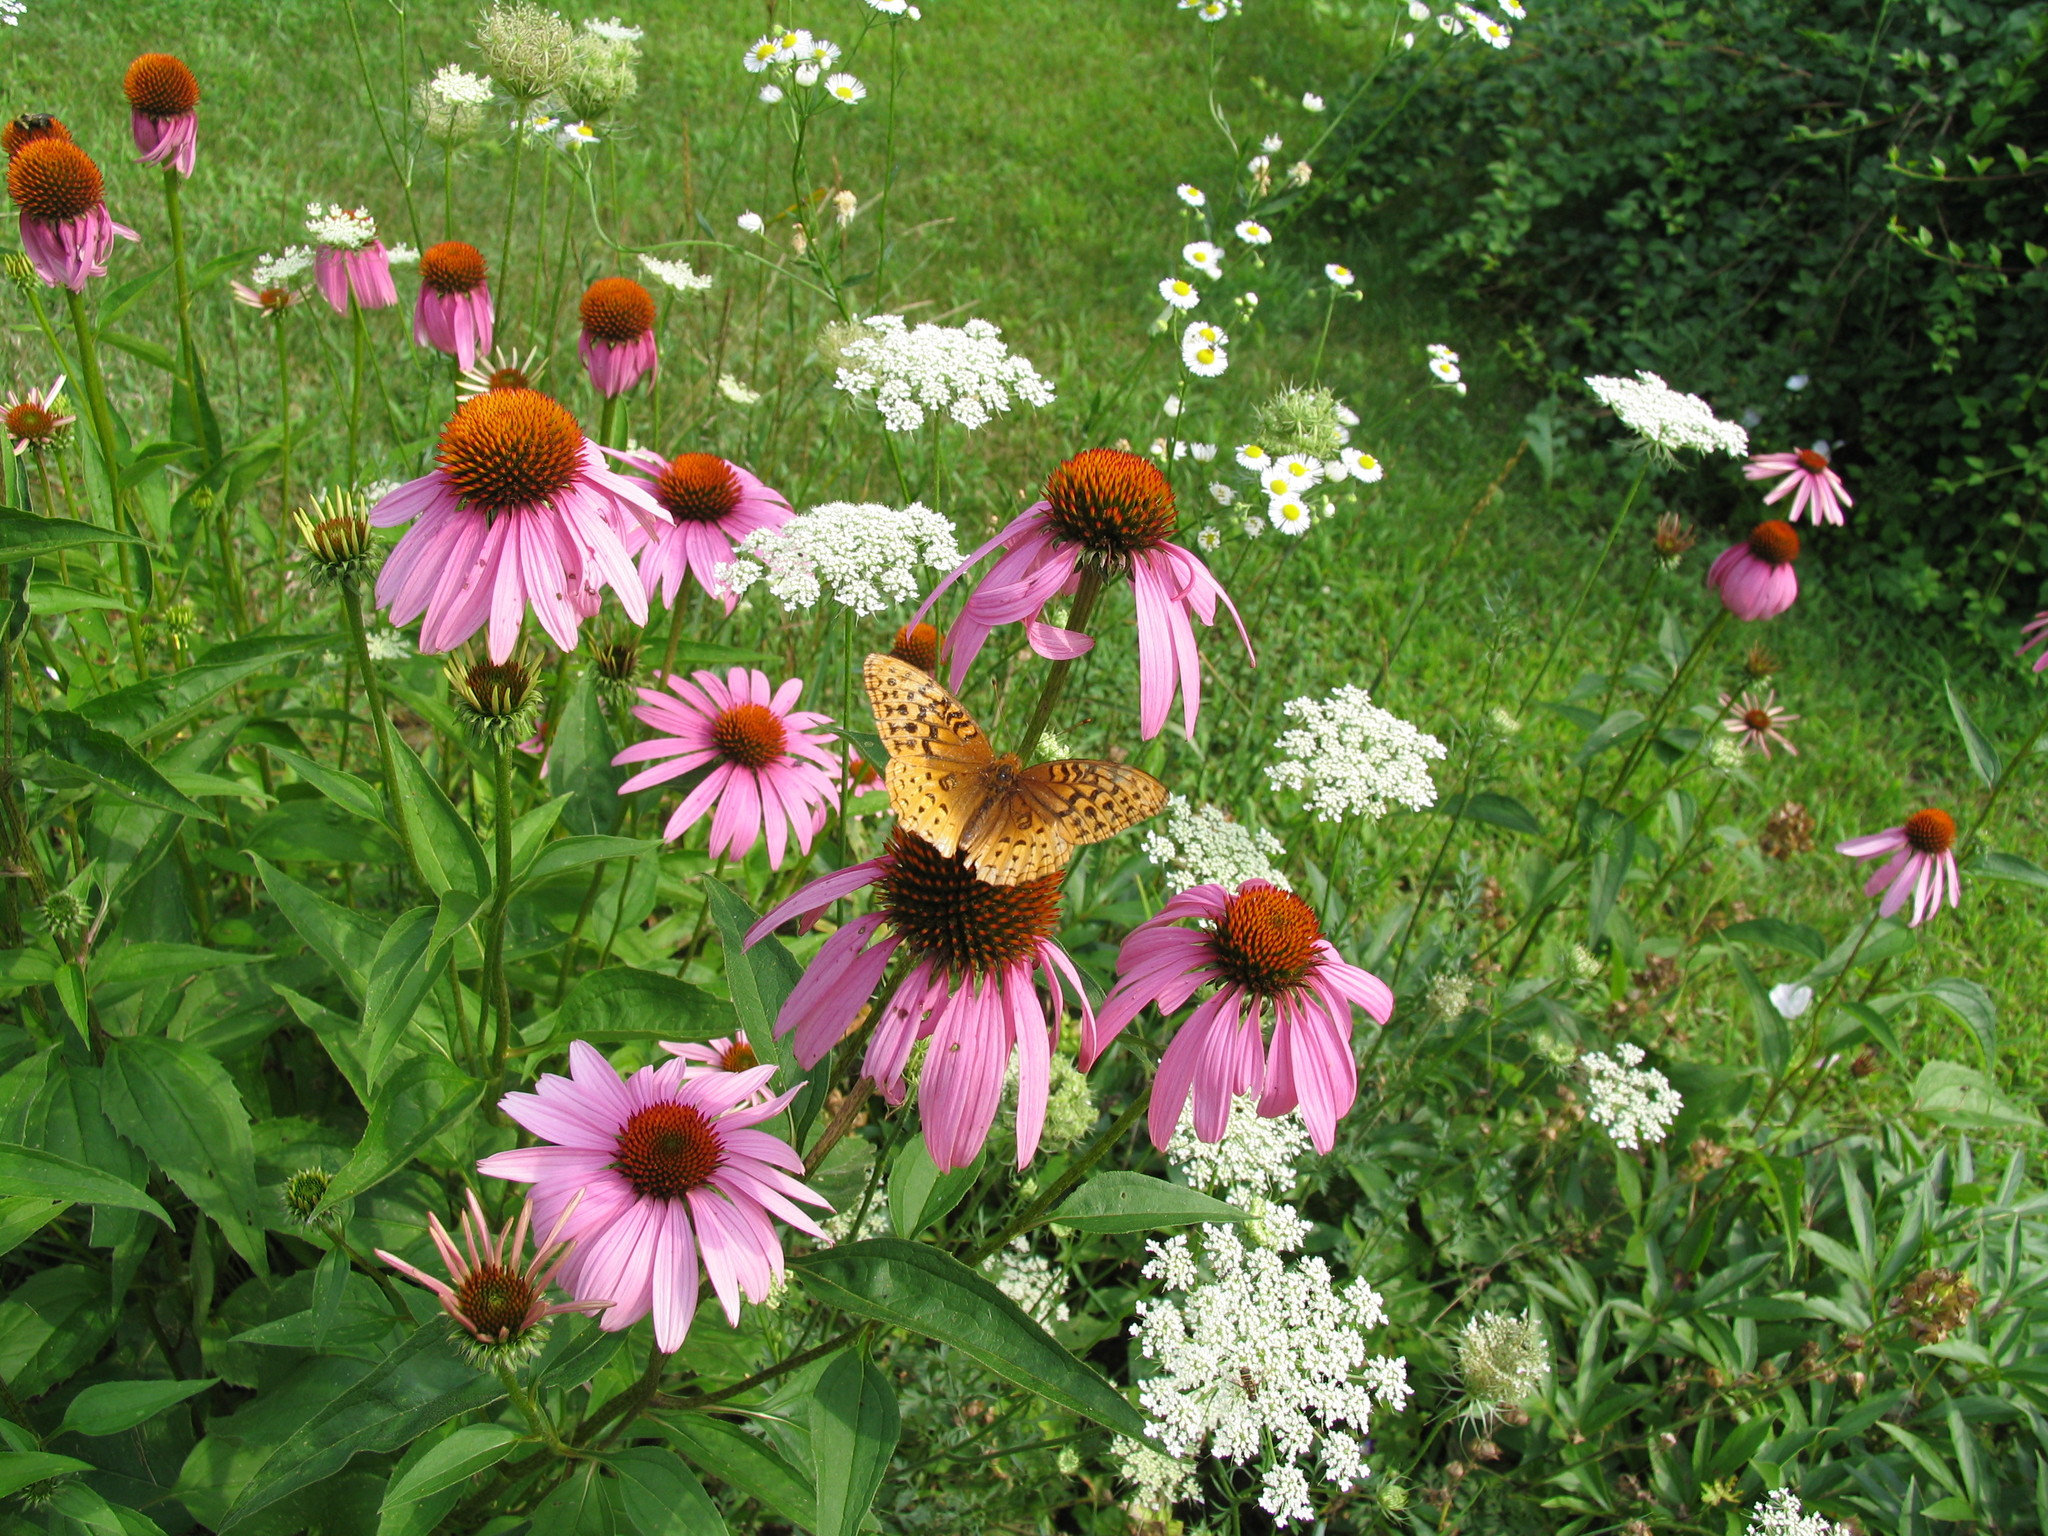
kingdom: Animalia
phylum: Arthropoda
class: Insecta
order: Lepidoptera
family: Nymphalidae
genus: Speyeria
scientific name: Speyeria cybele
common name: Great spangled fritillary
